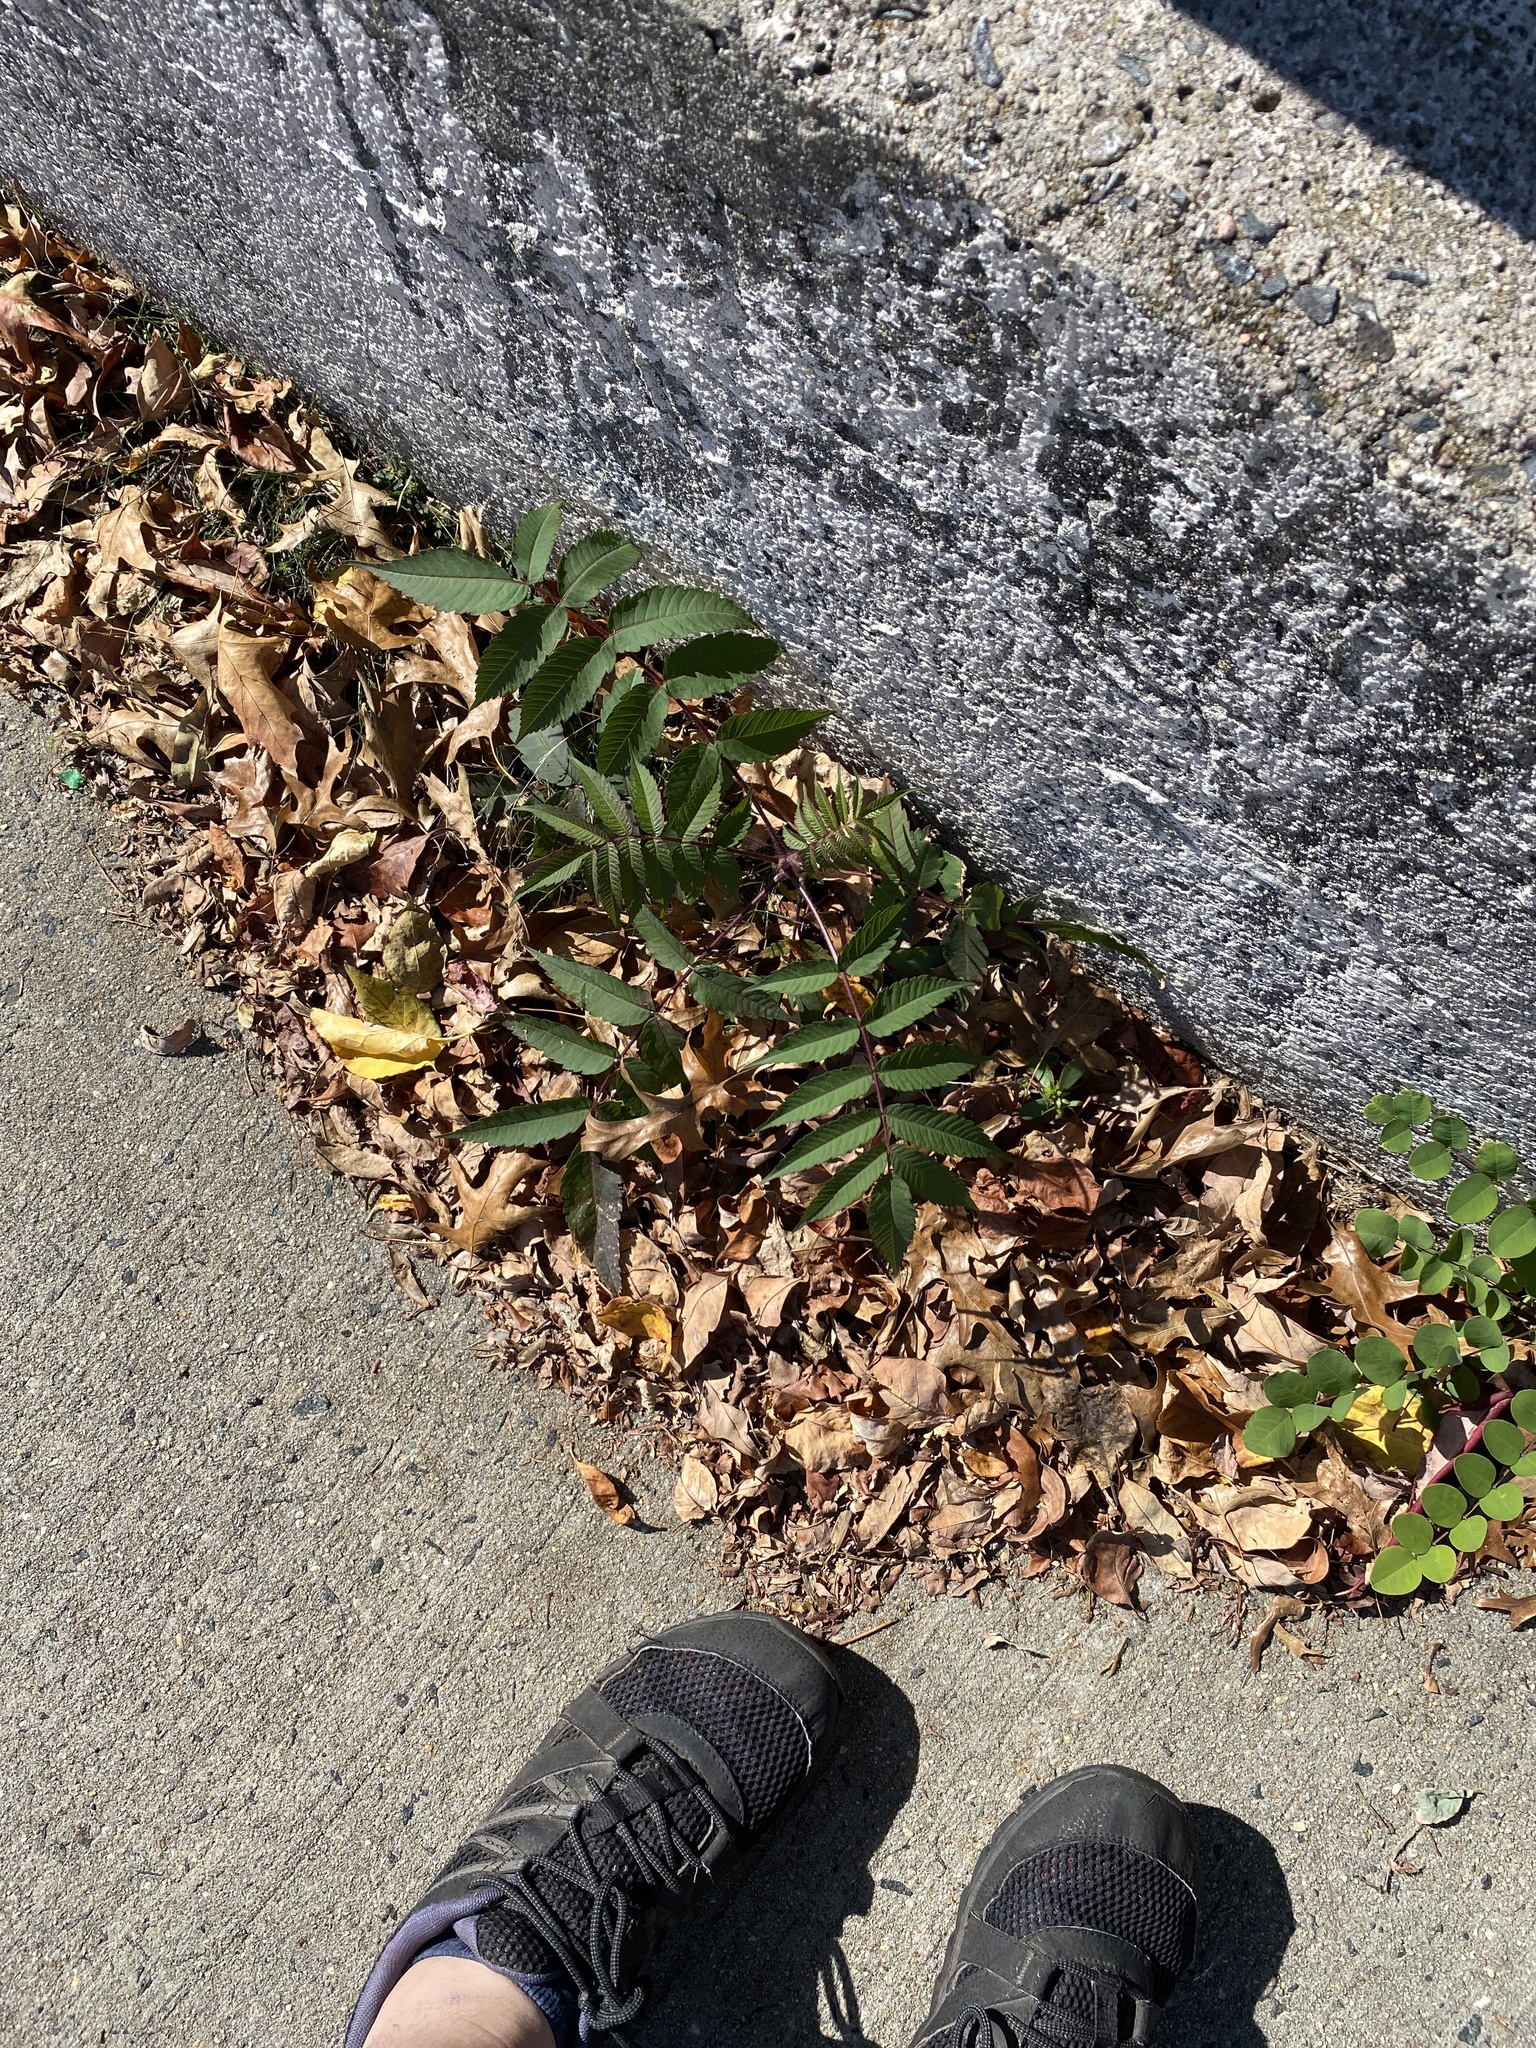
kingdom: Plantae
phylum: Tracheophyta
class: Magnoliopsida
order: Sapindales
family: Anacardiaceae
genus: Rhus
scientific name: Rhus typhina
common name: Staghorn sumac
